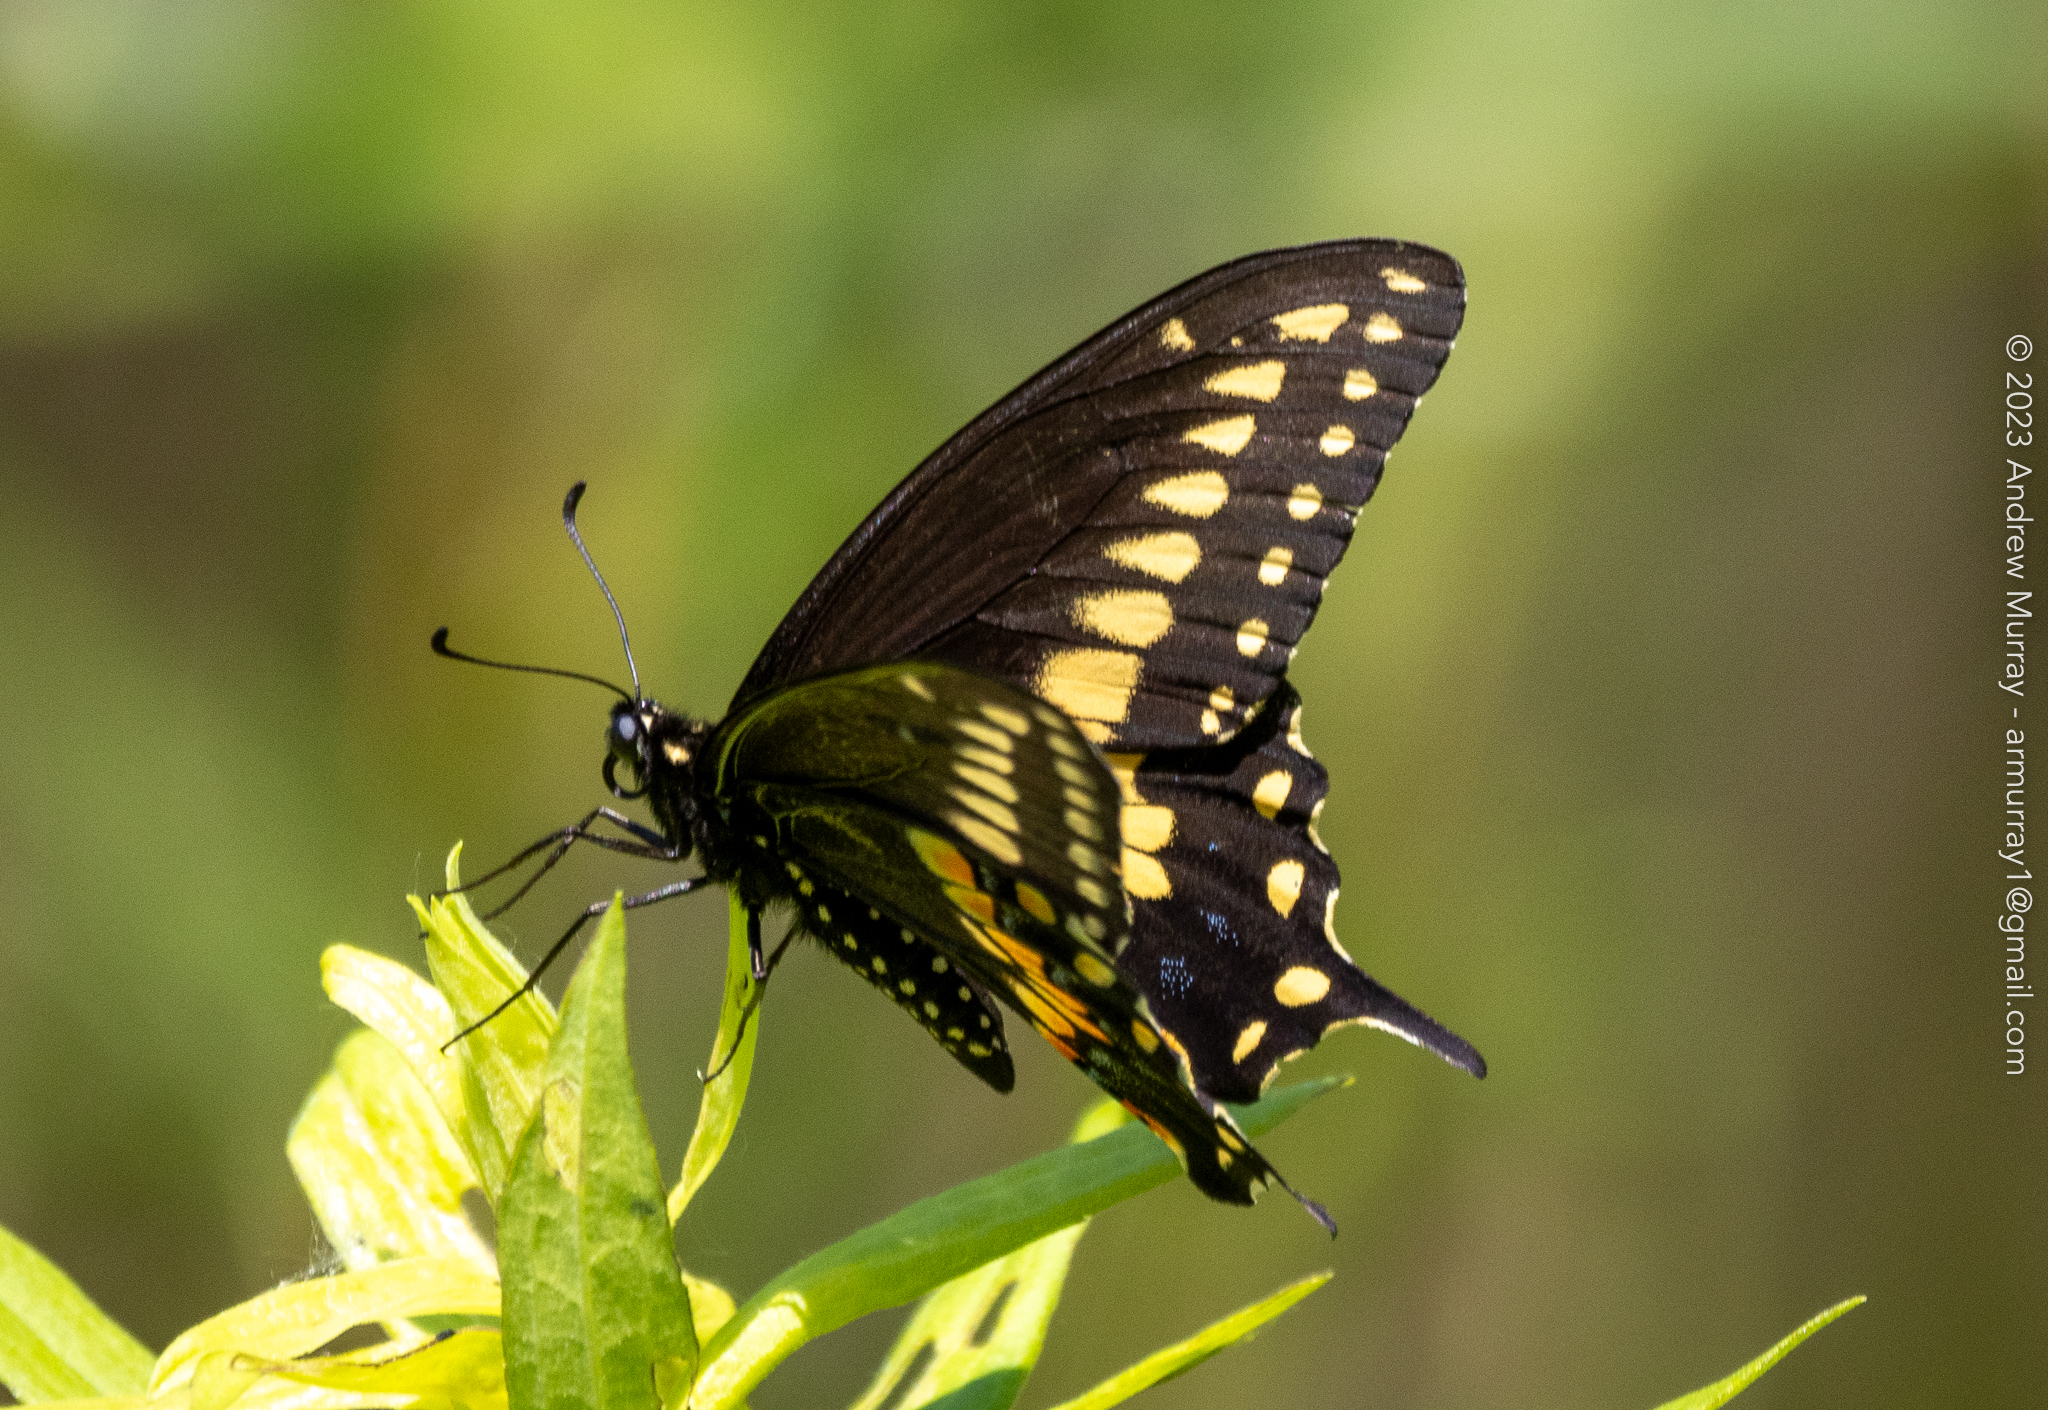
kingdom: Animalia
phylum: Arthropoda
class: Insecta
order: Lepidoptera
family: Papilionidae
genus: Papilio
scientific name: Papilio polyxenes
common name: Black swallowtail
